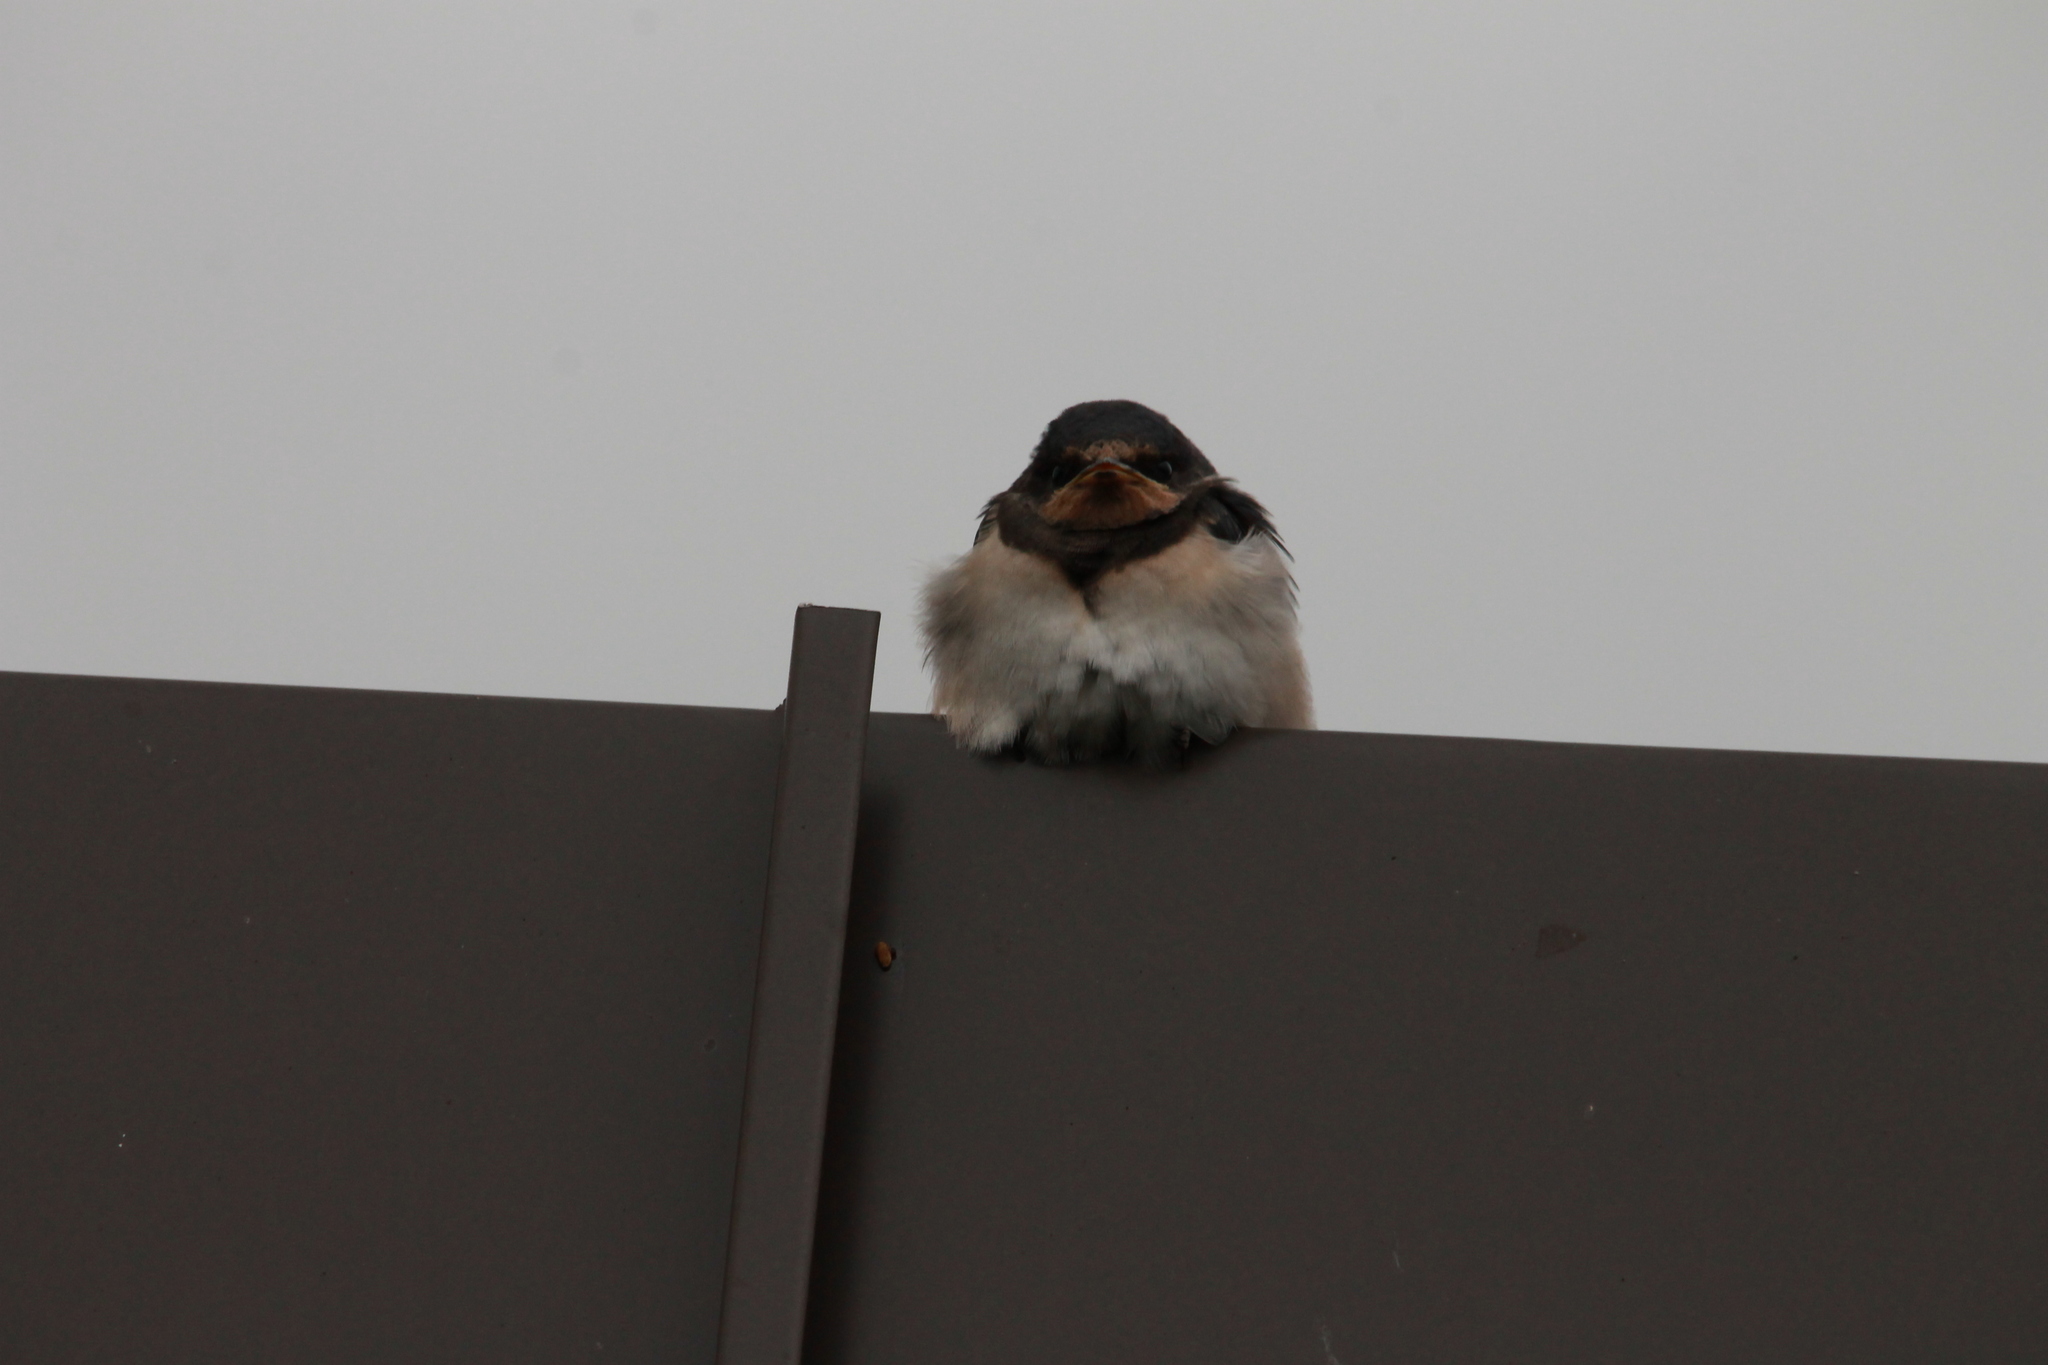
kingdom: Animalia
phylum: Chordata
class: Aves
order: Passeriformes
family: Hirundinidae
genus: Hirundo
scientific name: Hirundo rustica
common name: Barn swallow
